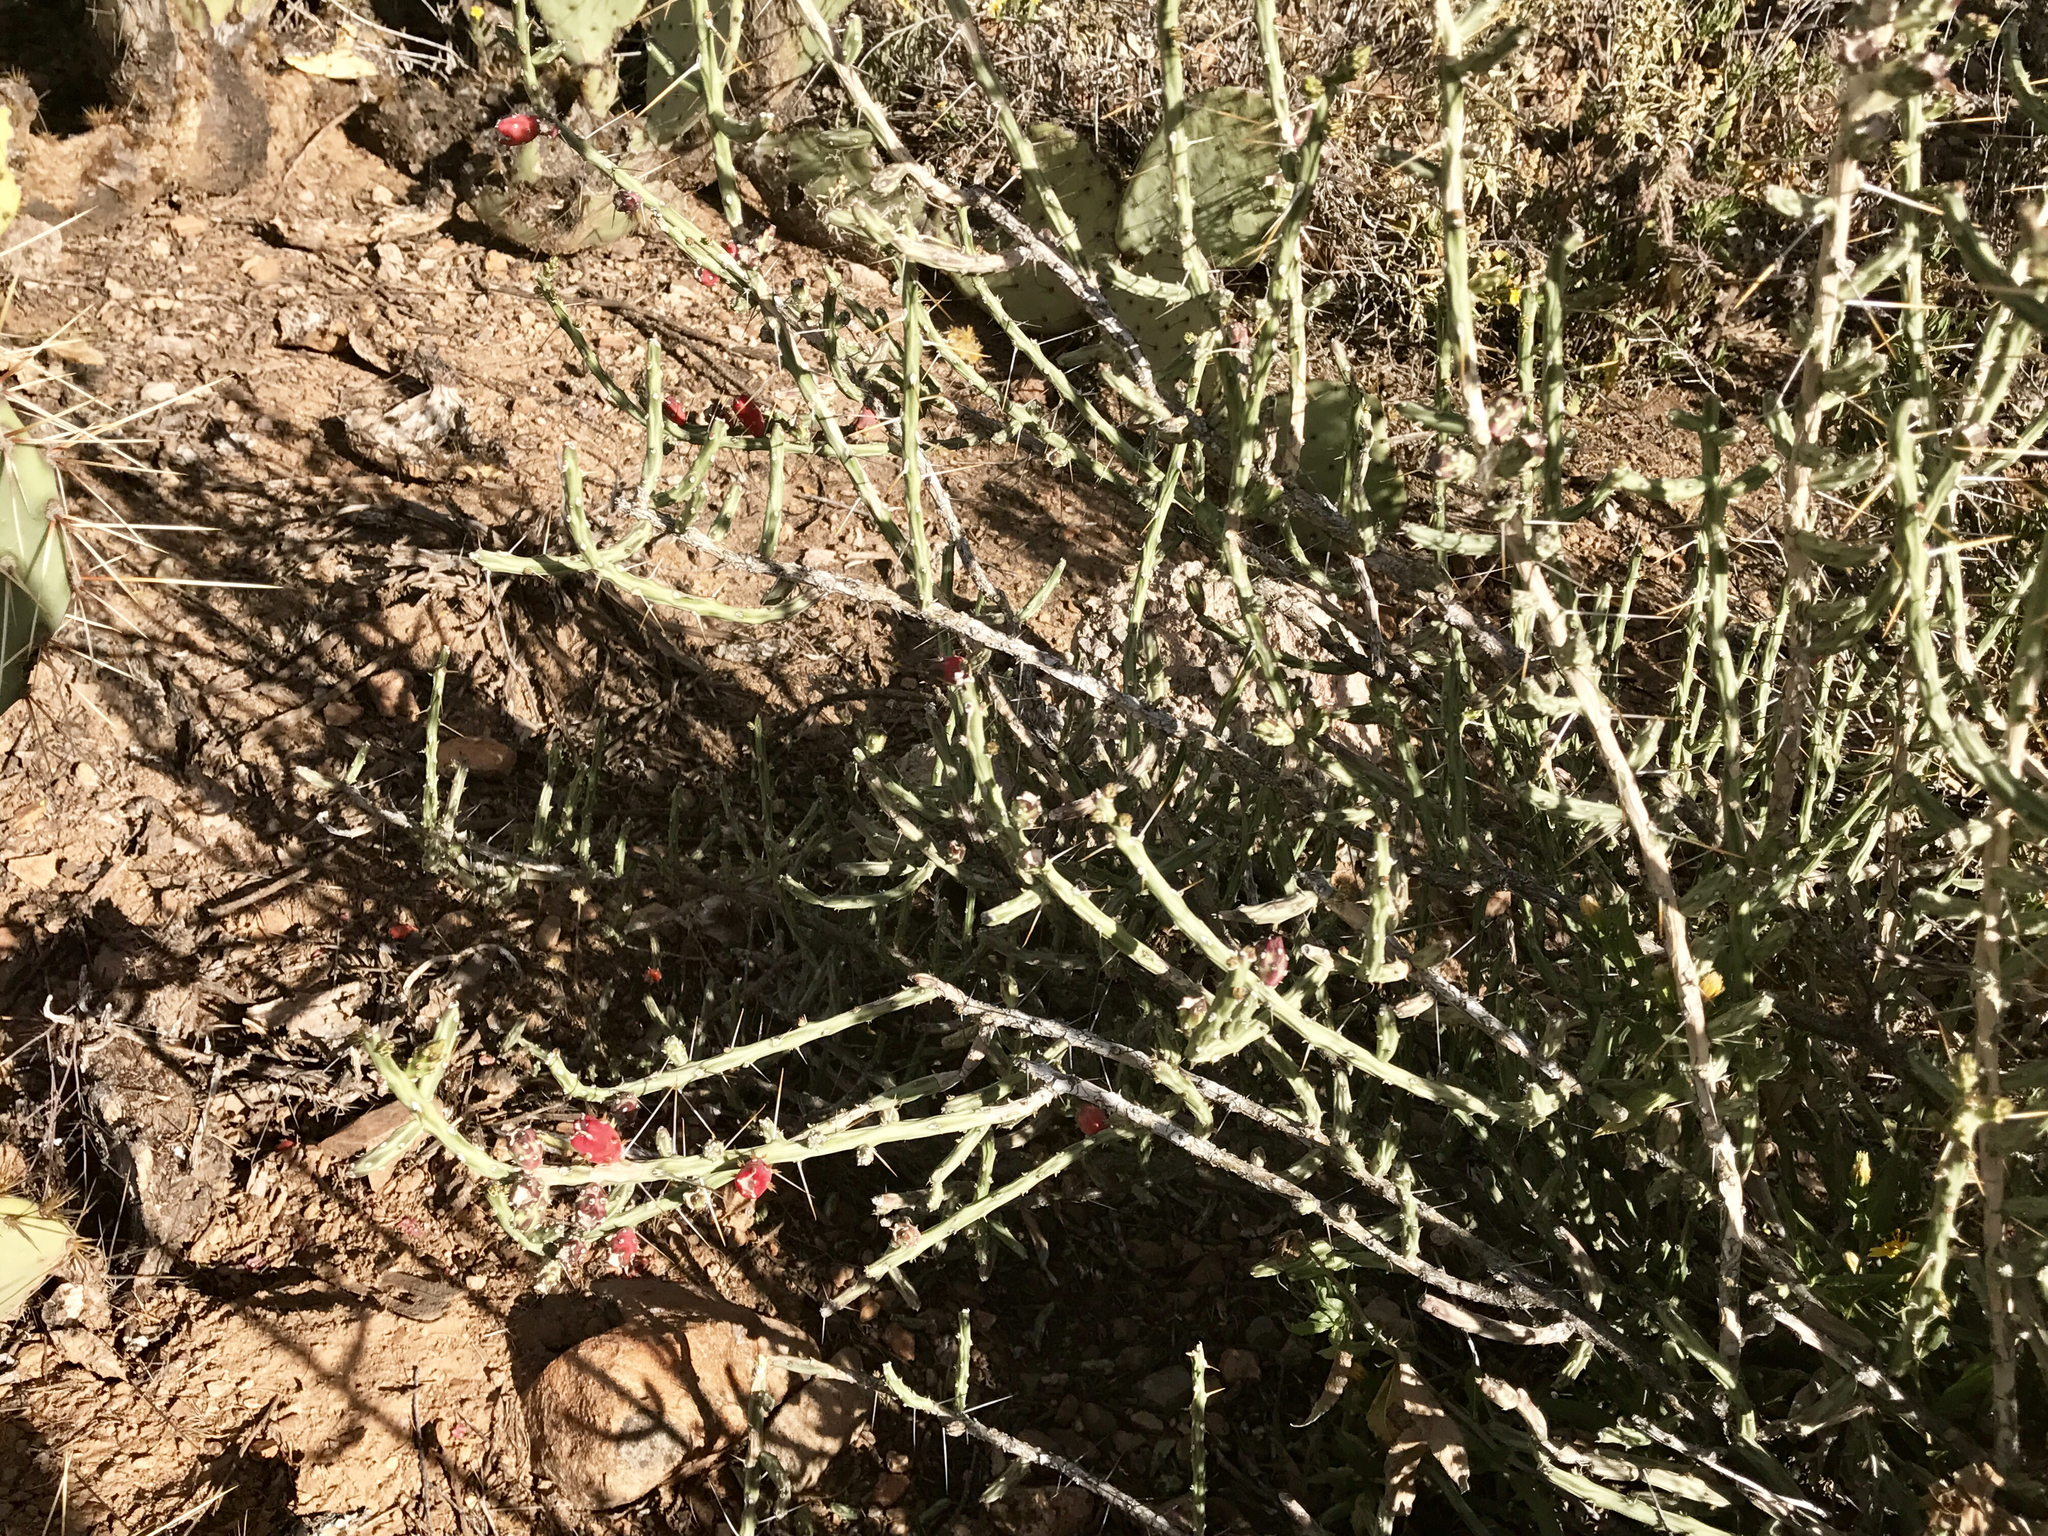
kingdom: Plantae
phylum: Tracheophyta
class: Magnoliopsida
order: Caryophyllales
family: Cactaceae
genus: Cylindropuntia
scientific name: Cylindropuntia leptocaulis
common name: Christmas cactus
